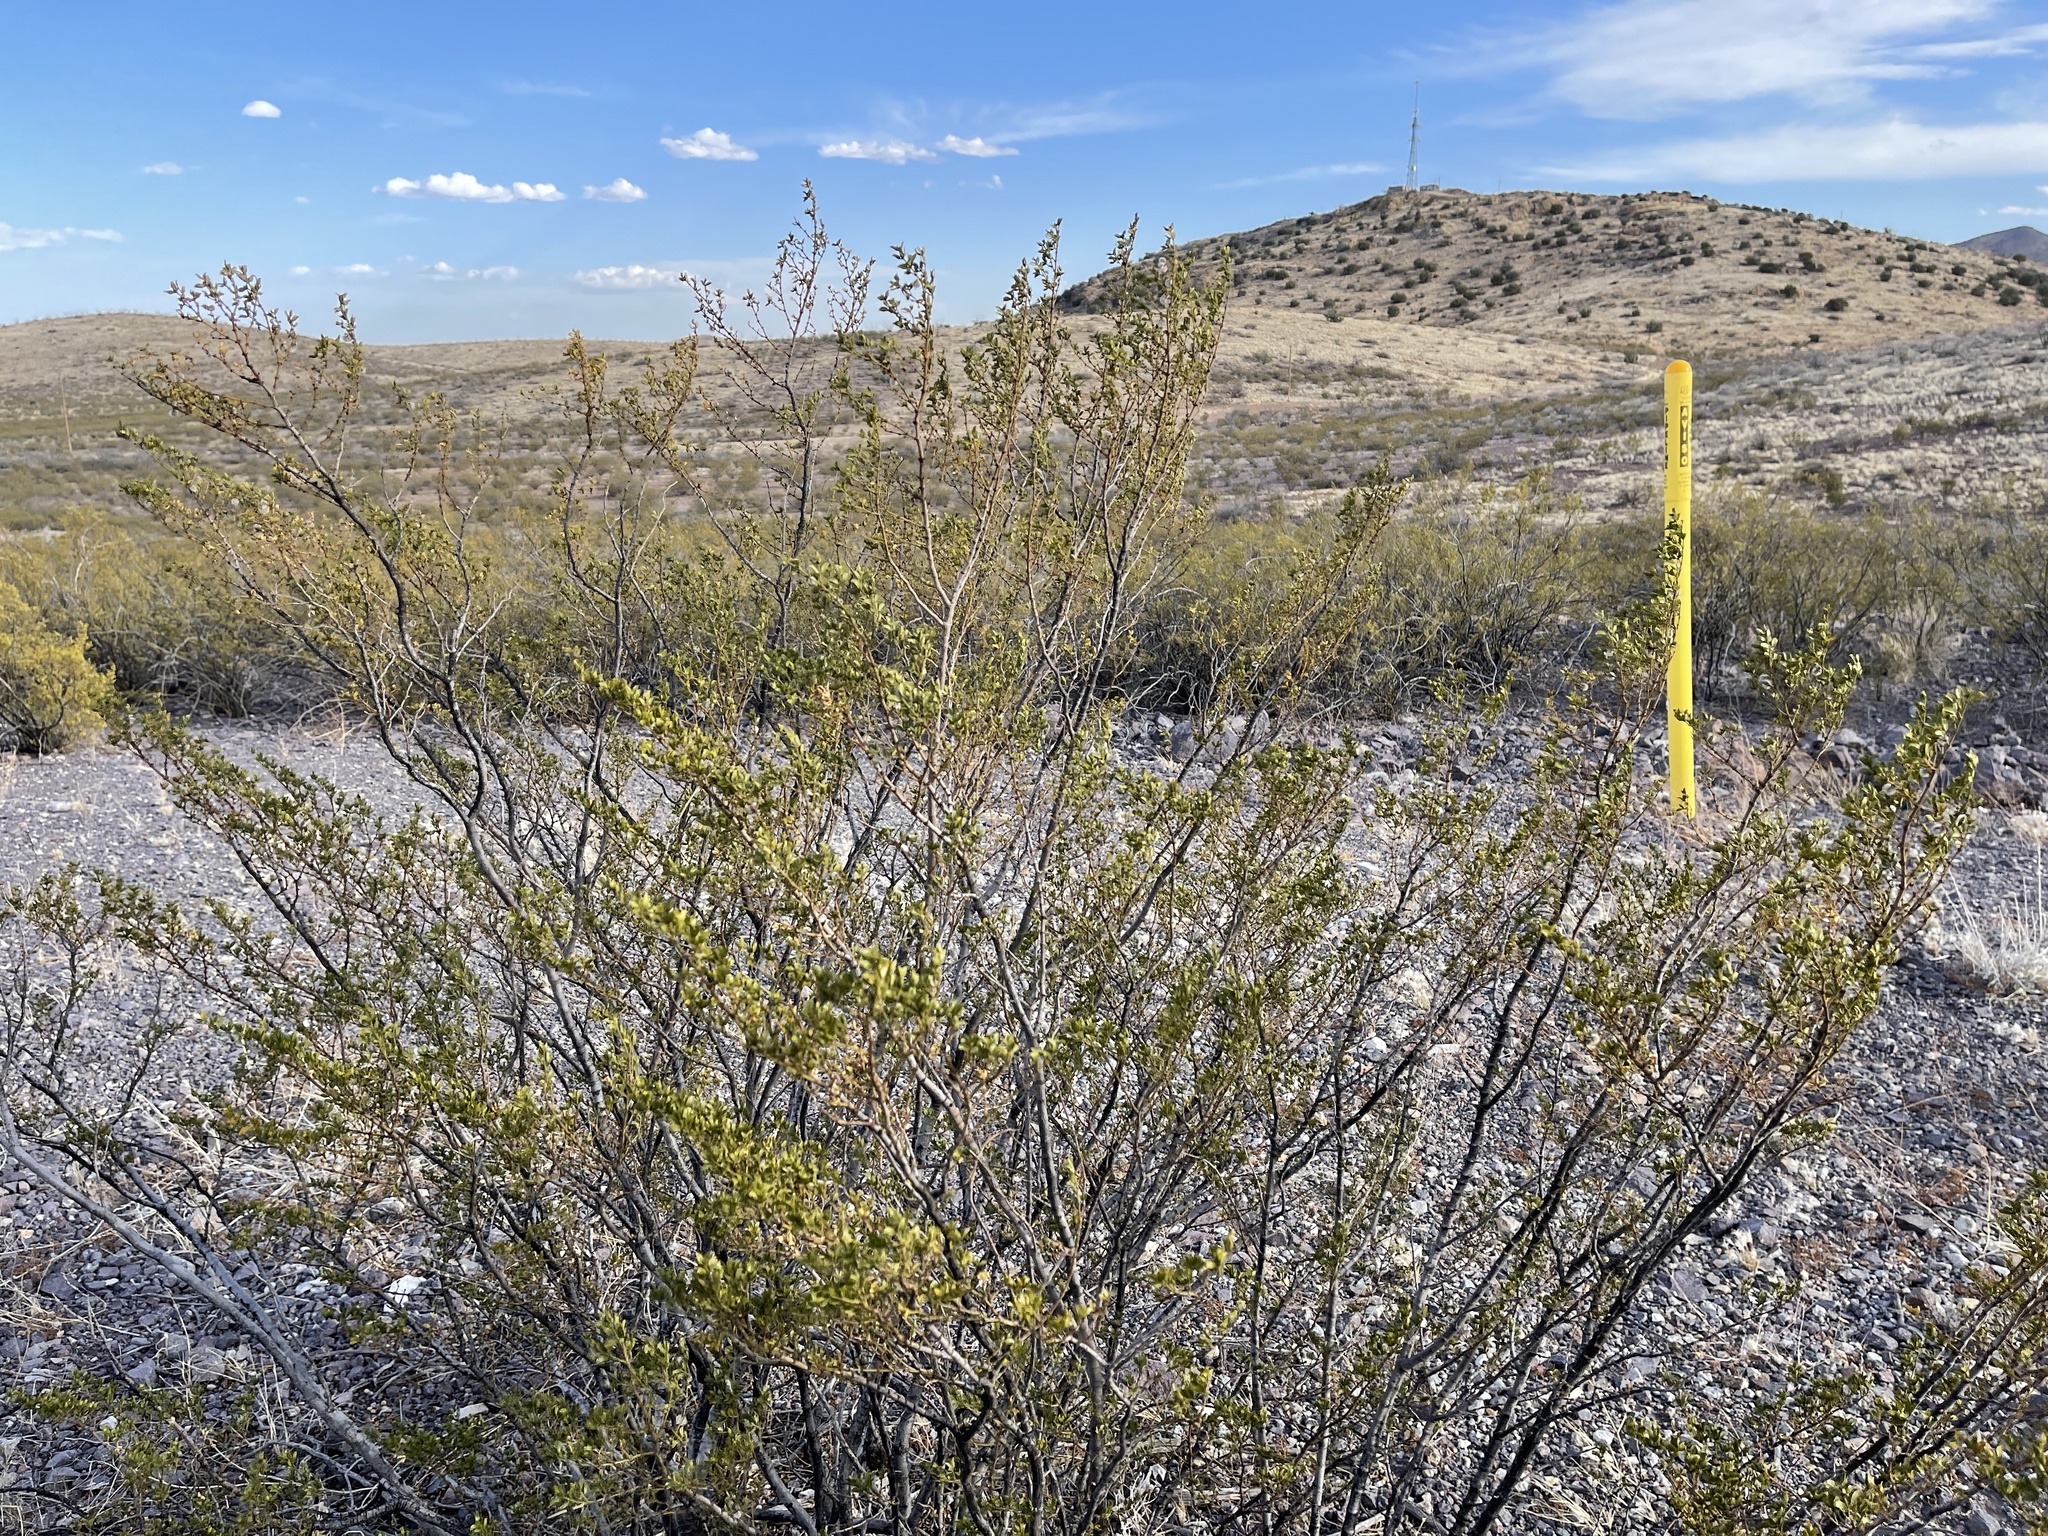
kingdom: Plantae
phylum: Tracheophyta
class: Magnoliopsida
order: Zygophyllales
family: Zygophyllaceae
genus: Larrea
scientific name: Larrea tridentata
